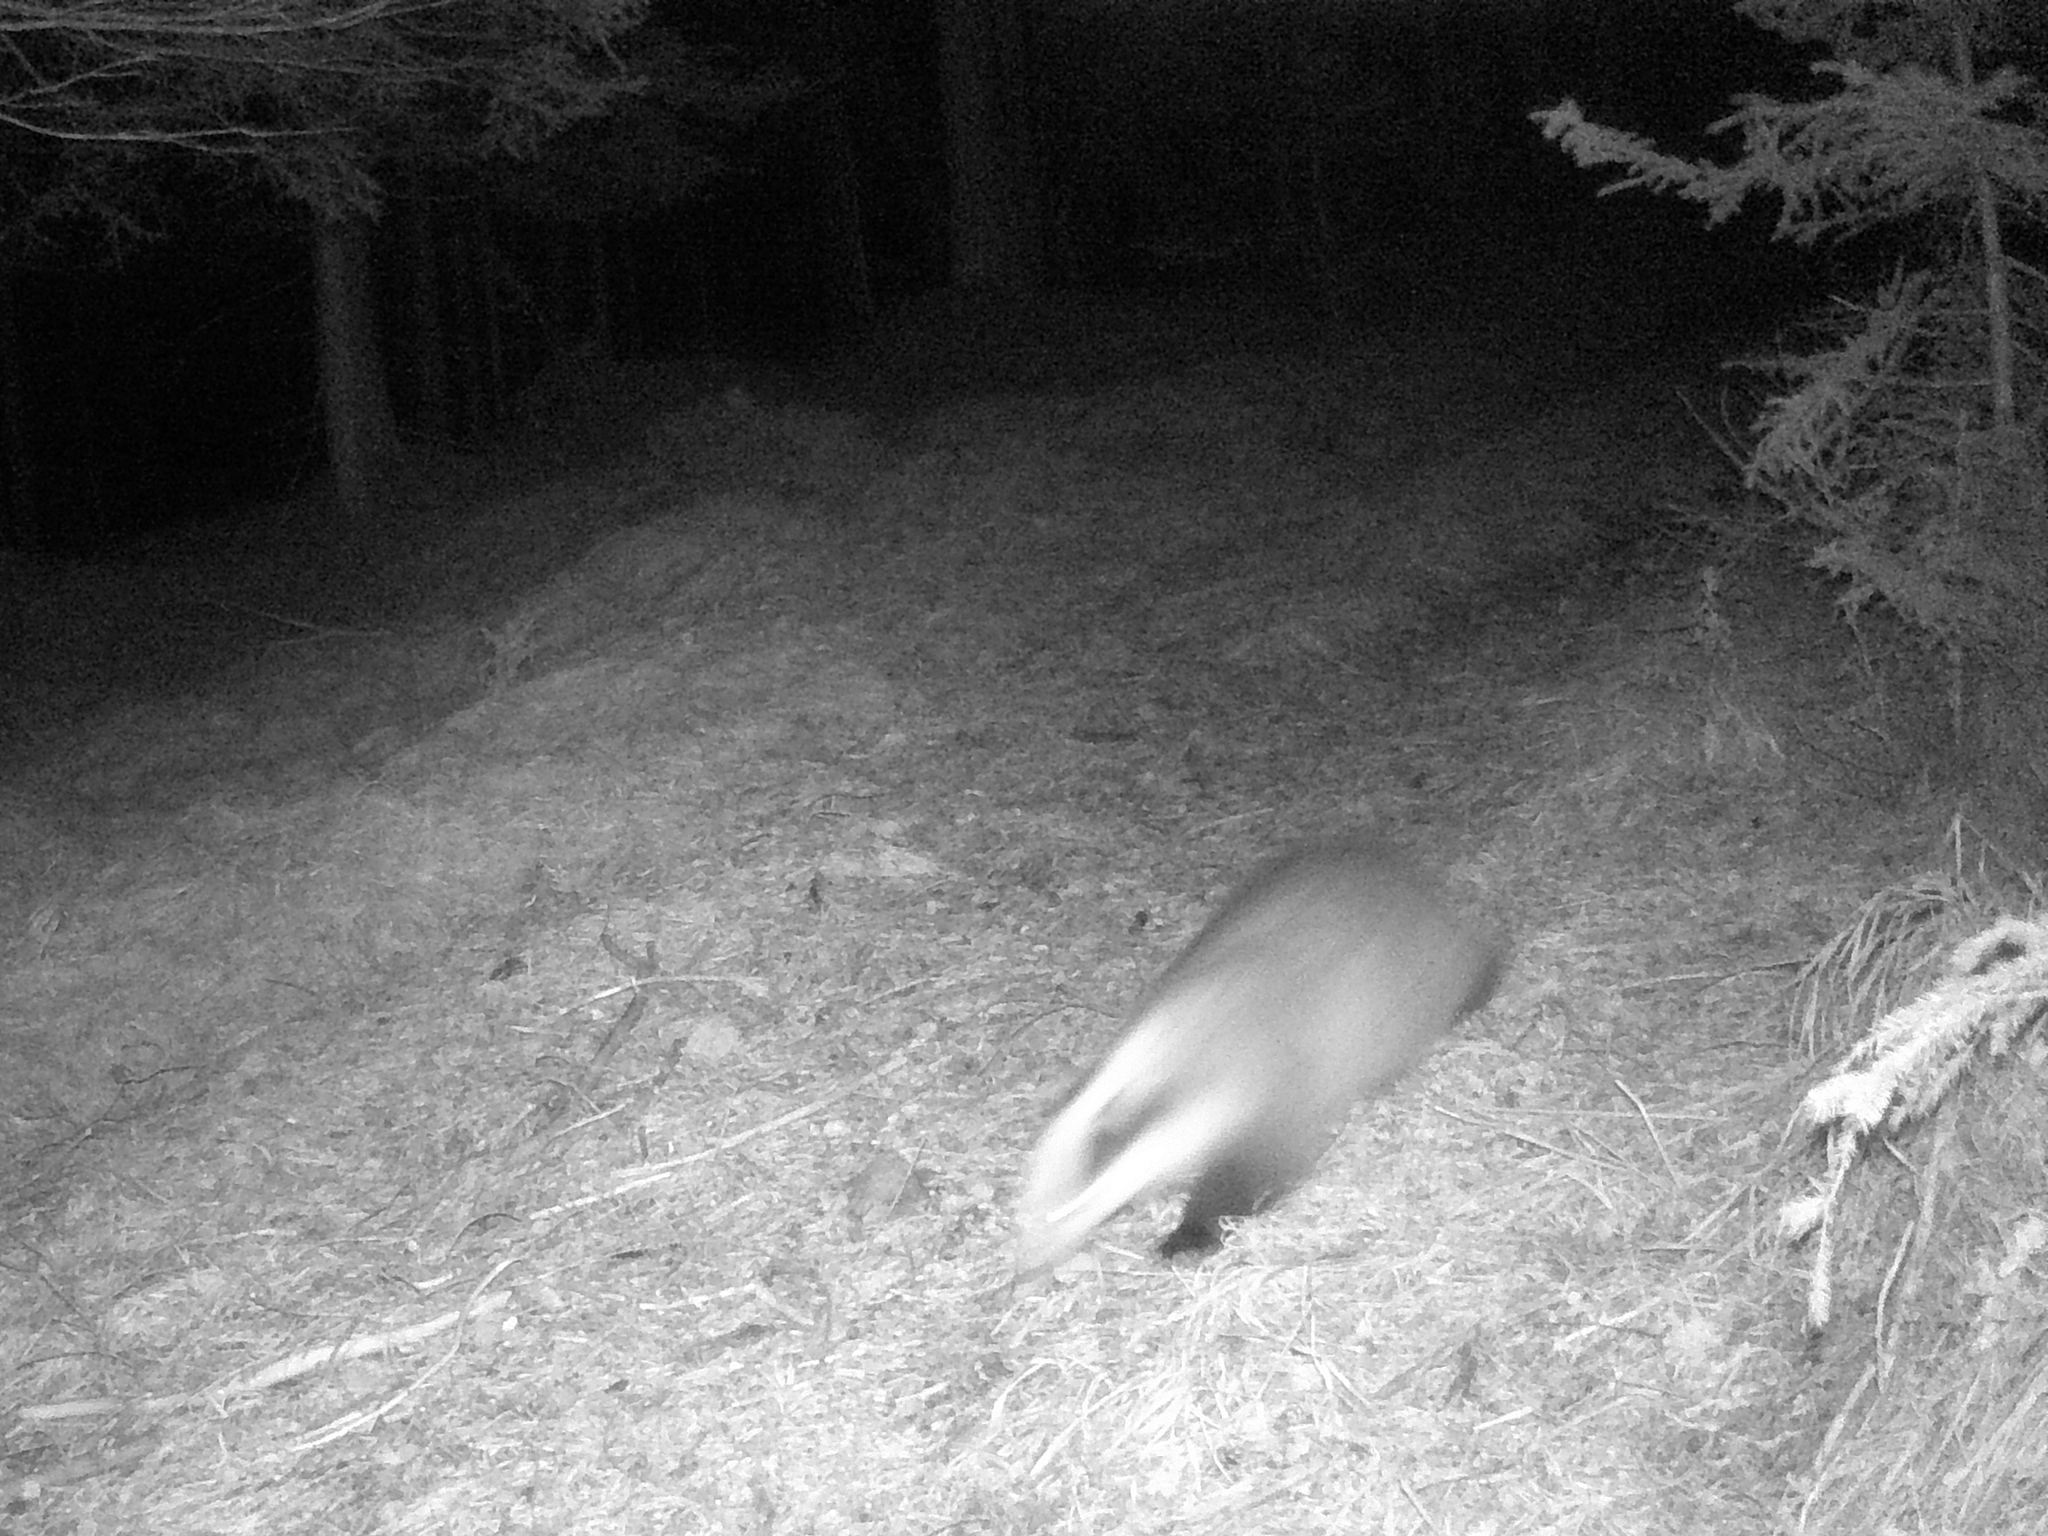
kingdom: Animalia
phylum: Chordata
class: Mammalia
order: Carnivora
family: Mustelidae
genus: Meles
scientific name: Meles meles
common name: Eurasian badger
